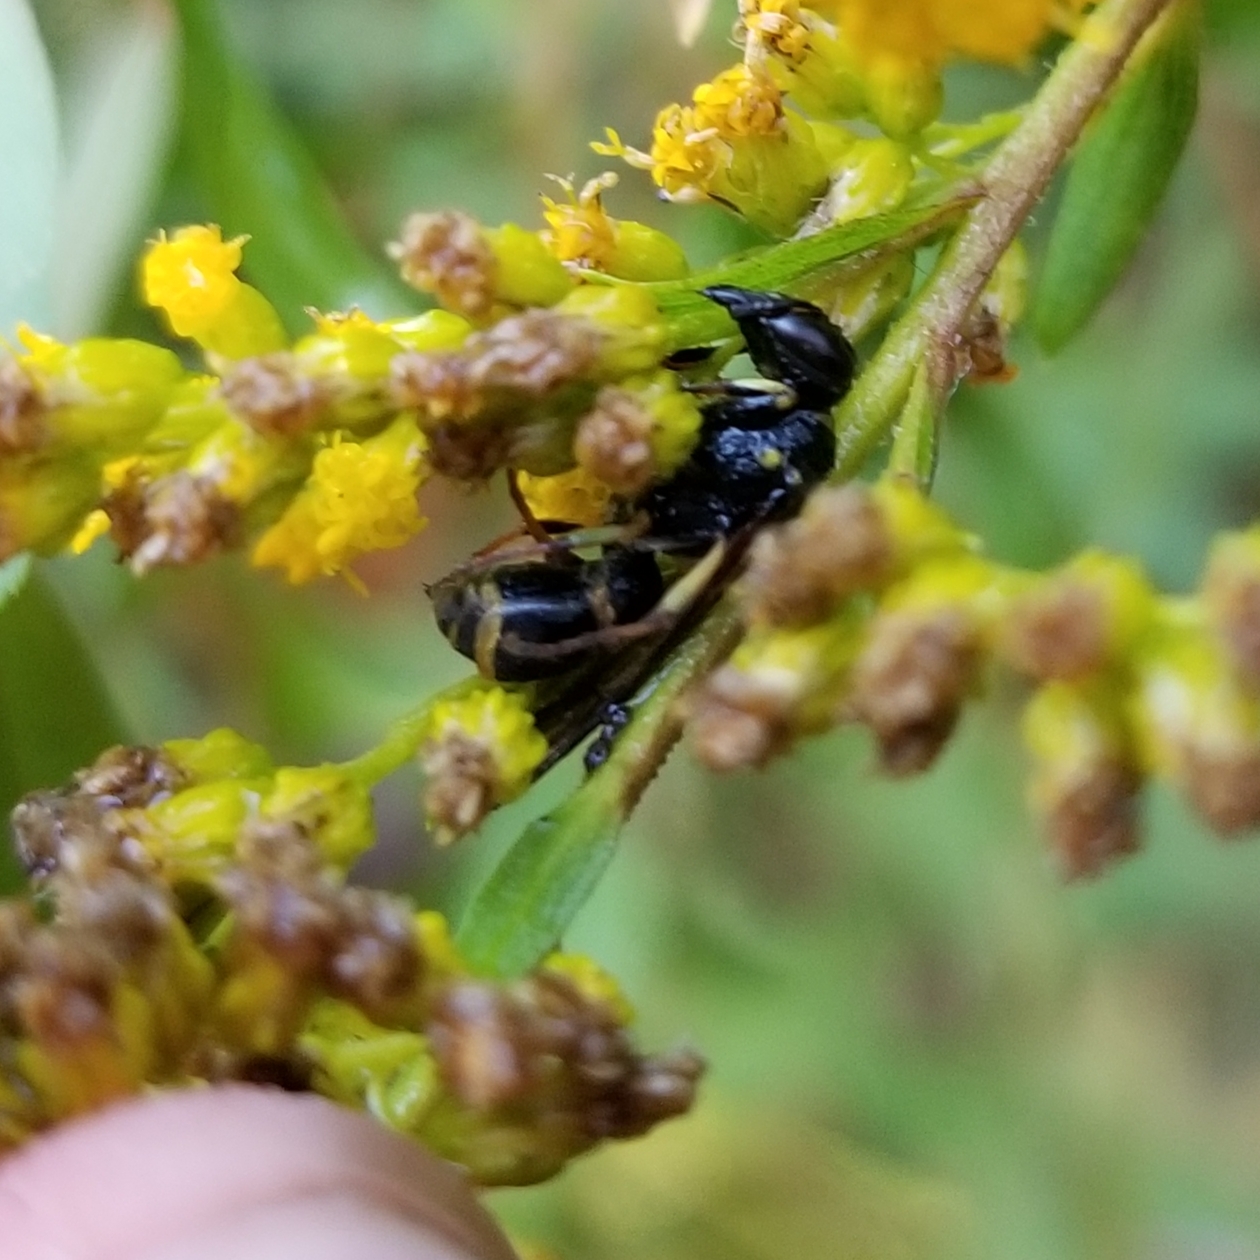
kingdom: Animalia
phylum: Arthropoda
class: Insecta
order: Hymenoptera
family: Eumenidae
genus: Parancistrocerus
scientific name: Parancistrocerus
